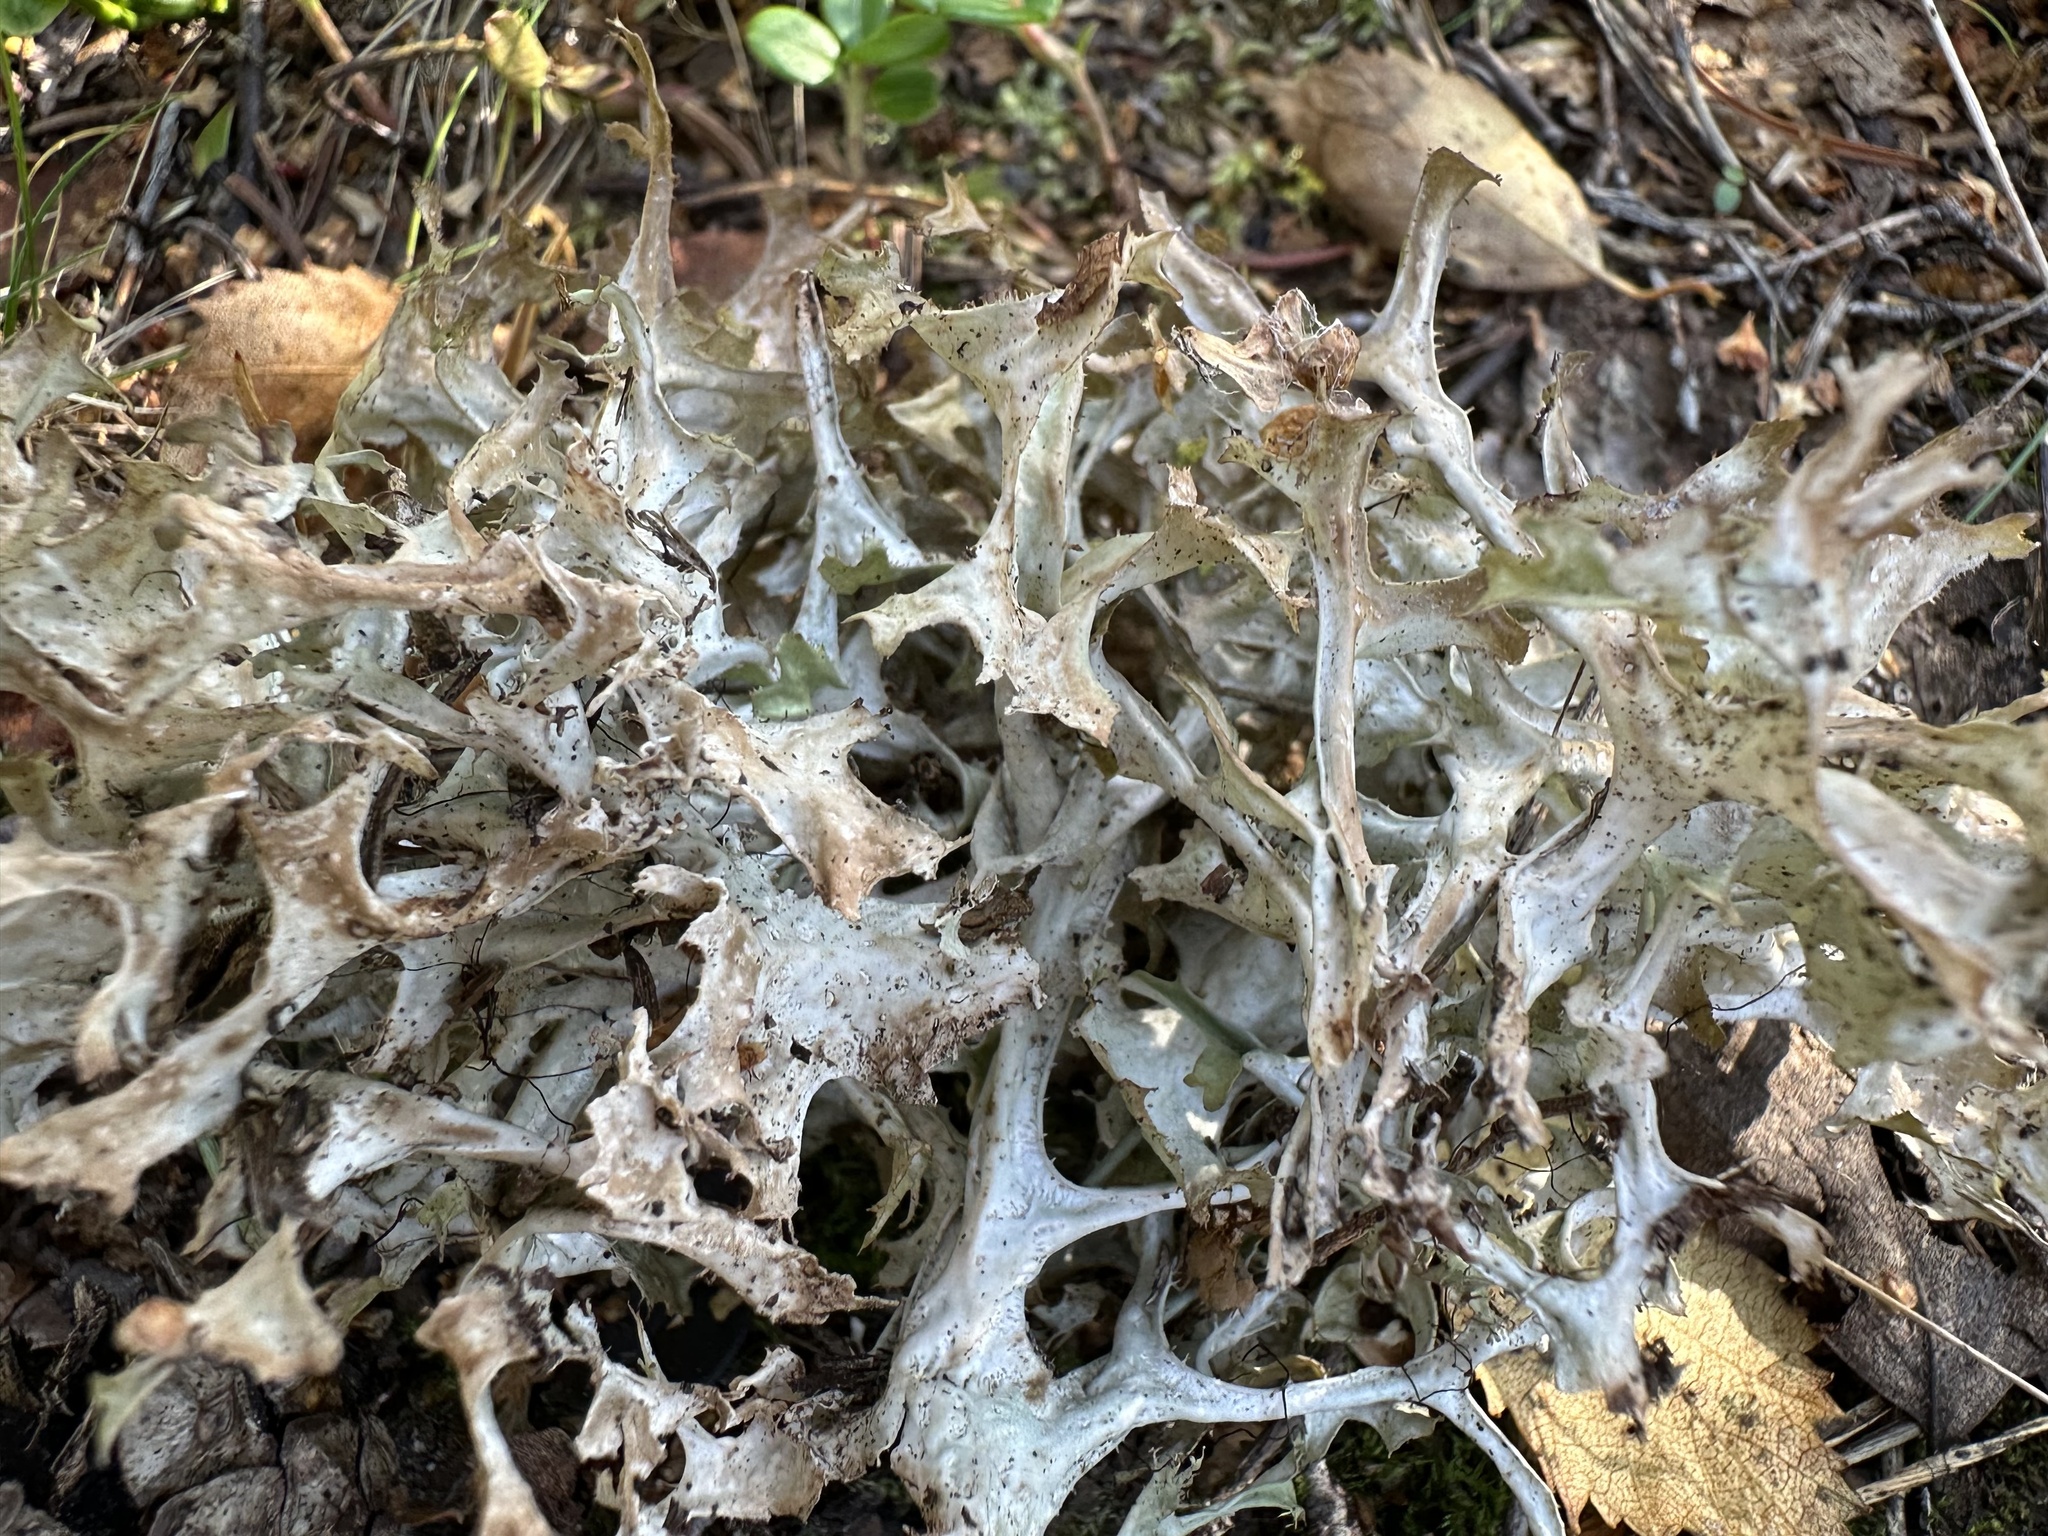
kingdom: Fungi
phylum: Ascomycota
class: Lecanoromycetes
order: Lecanorales
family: Parmeliaceae
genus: Cetraria
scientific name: Cetraria islandica
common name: Iceland lichen
